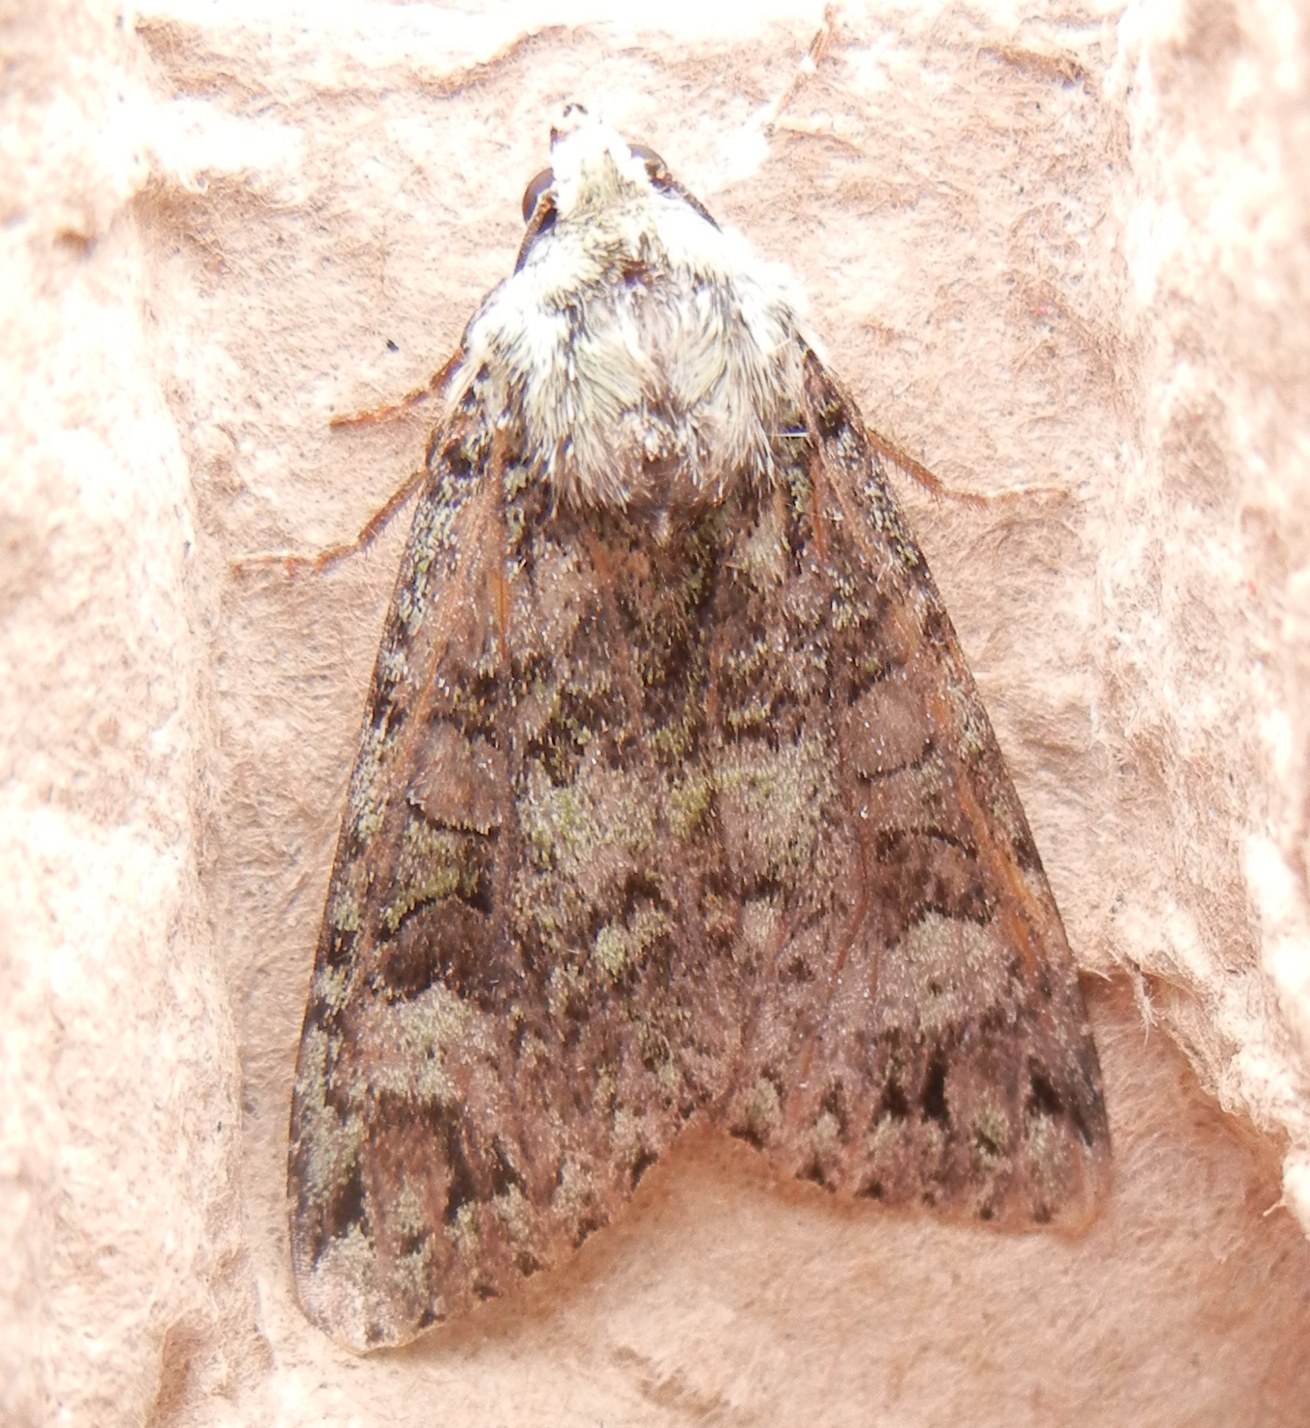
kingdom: Animalia
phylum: Arthropoda
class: Insecta
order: Lepidoptera
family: Noctuidae
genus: Anaplectoides
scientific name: Anaplectoides prasina
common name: Green arches
